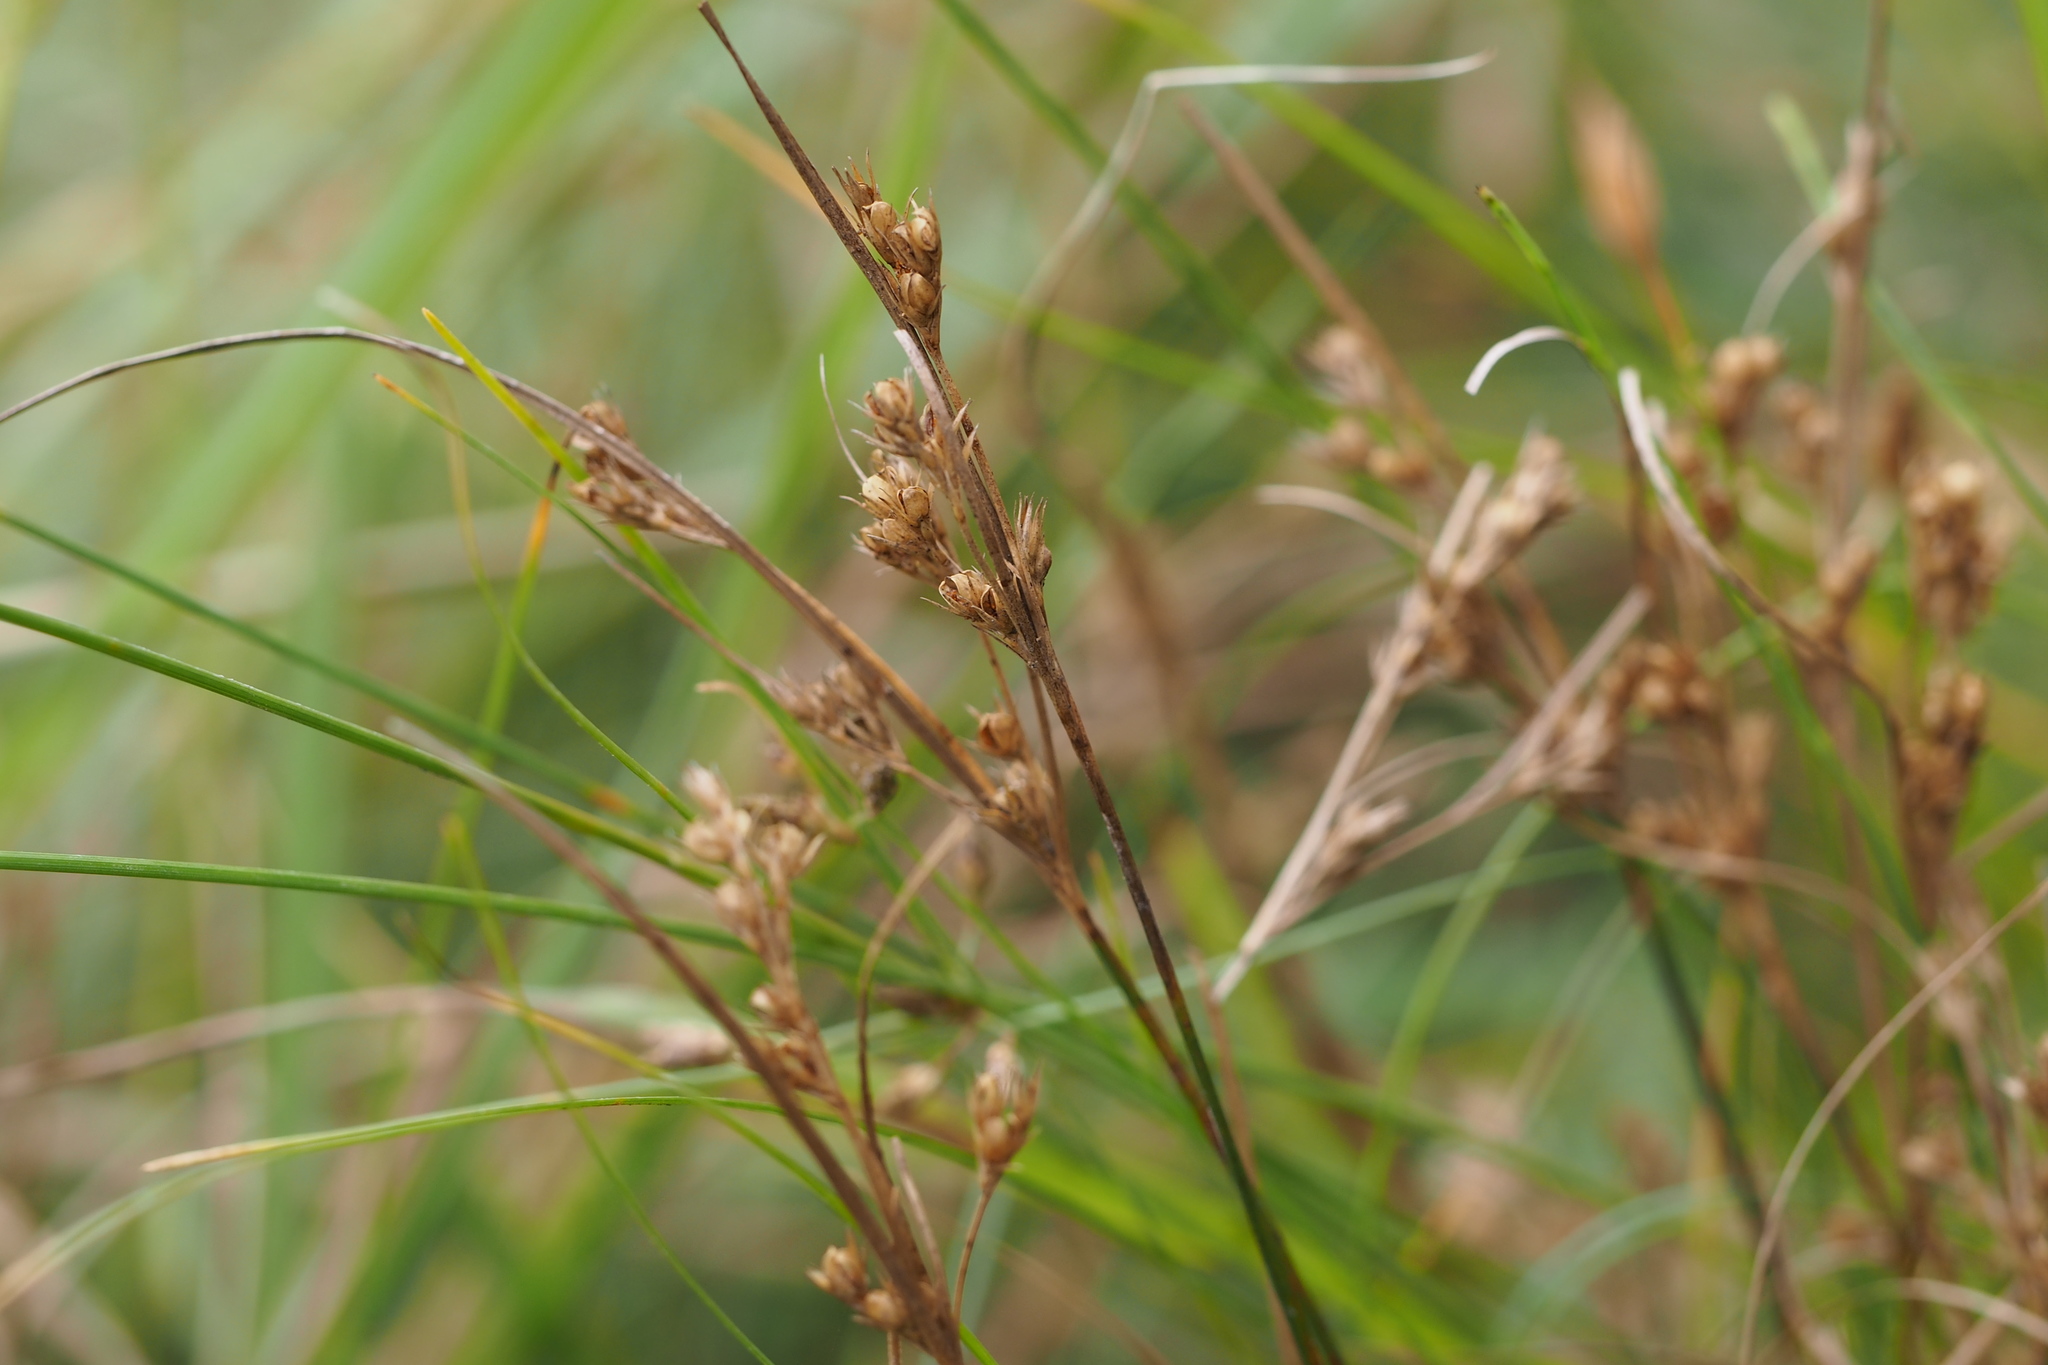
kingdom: Plantae
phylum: Tracheophyta
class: Liliopsida
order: Poales
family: Juncaceae
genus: Juncus
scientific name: Juncus tenuis
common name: Slender rush
